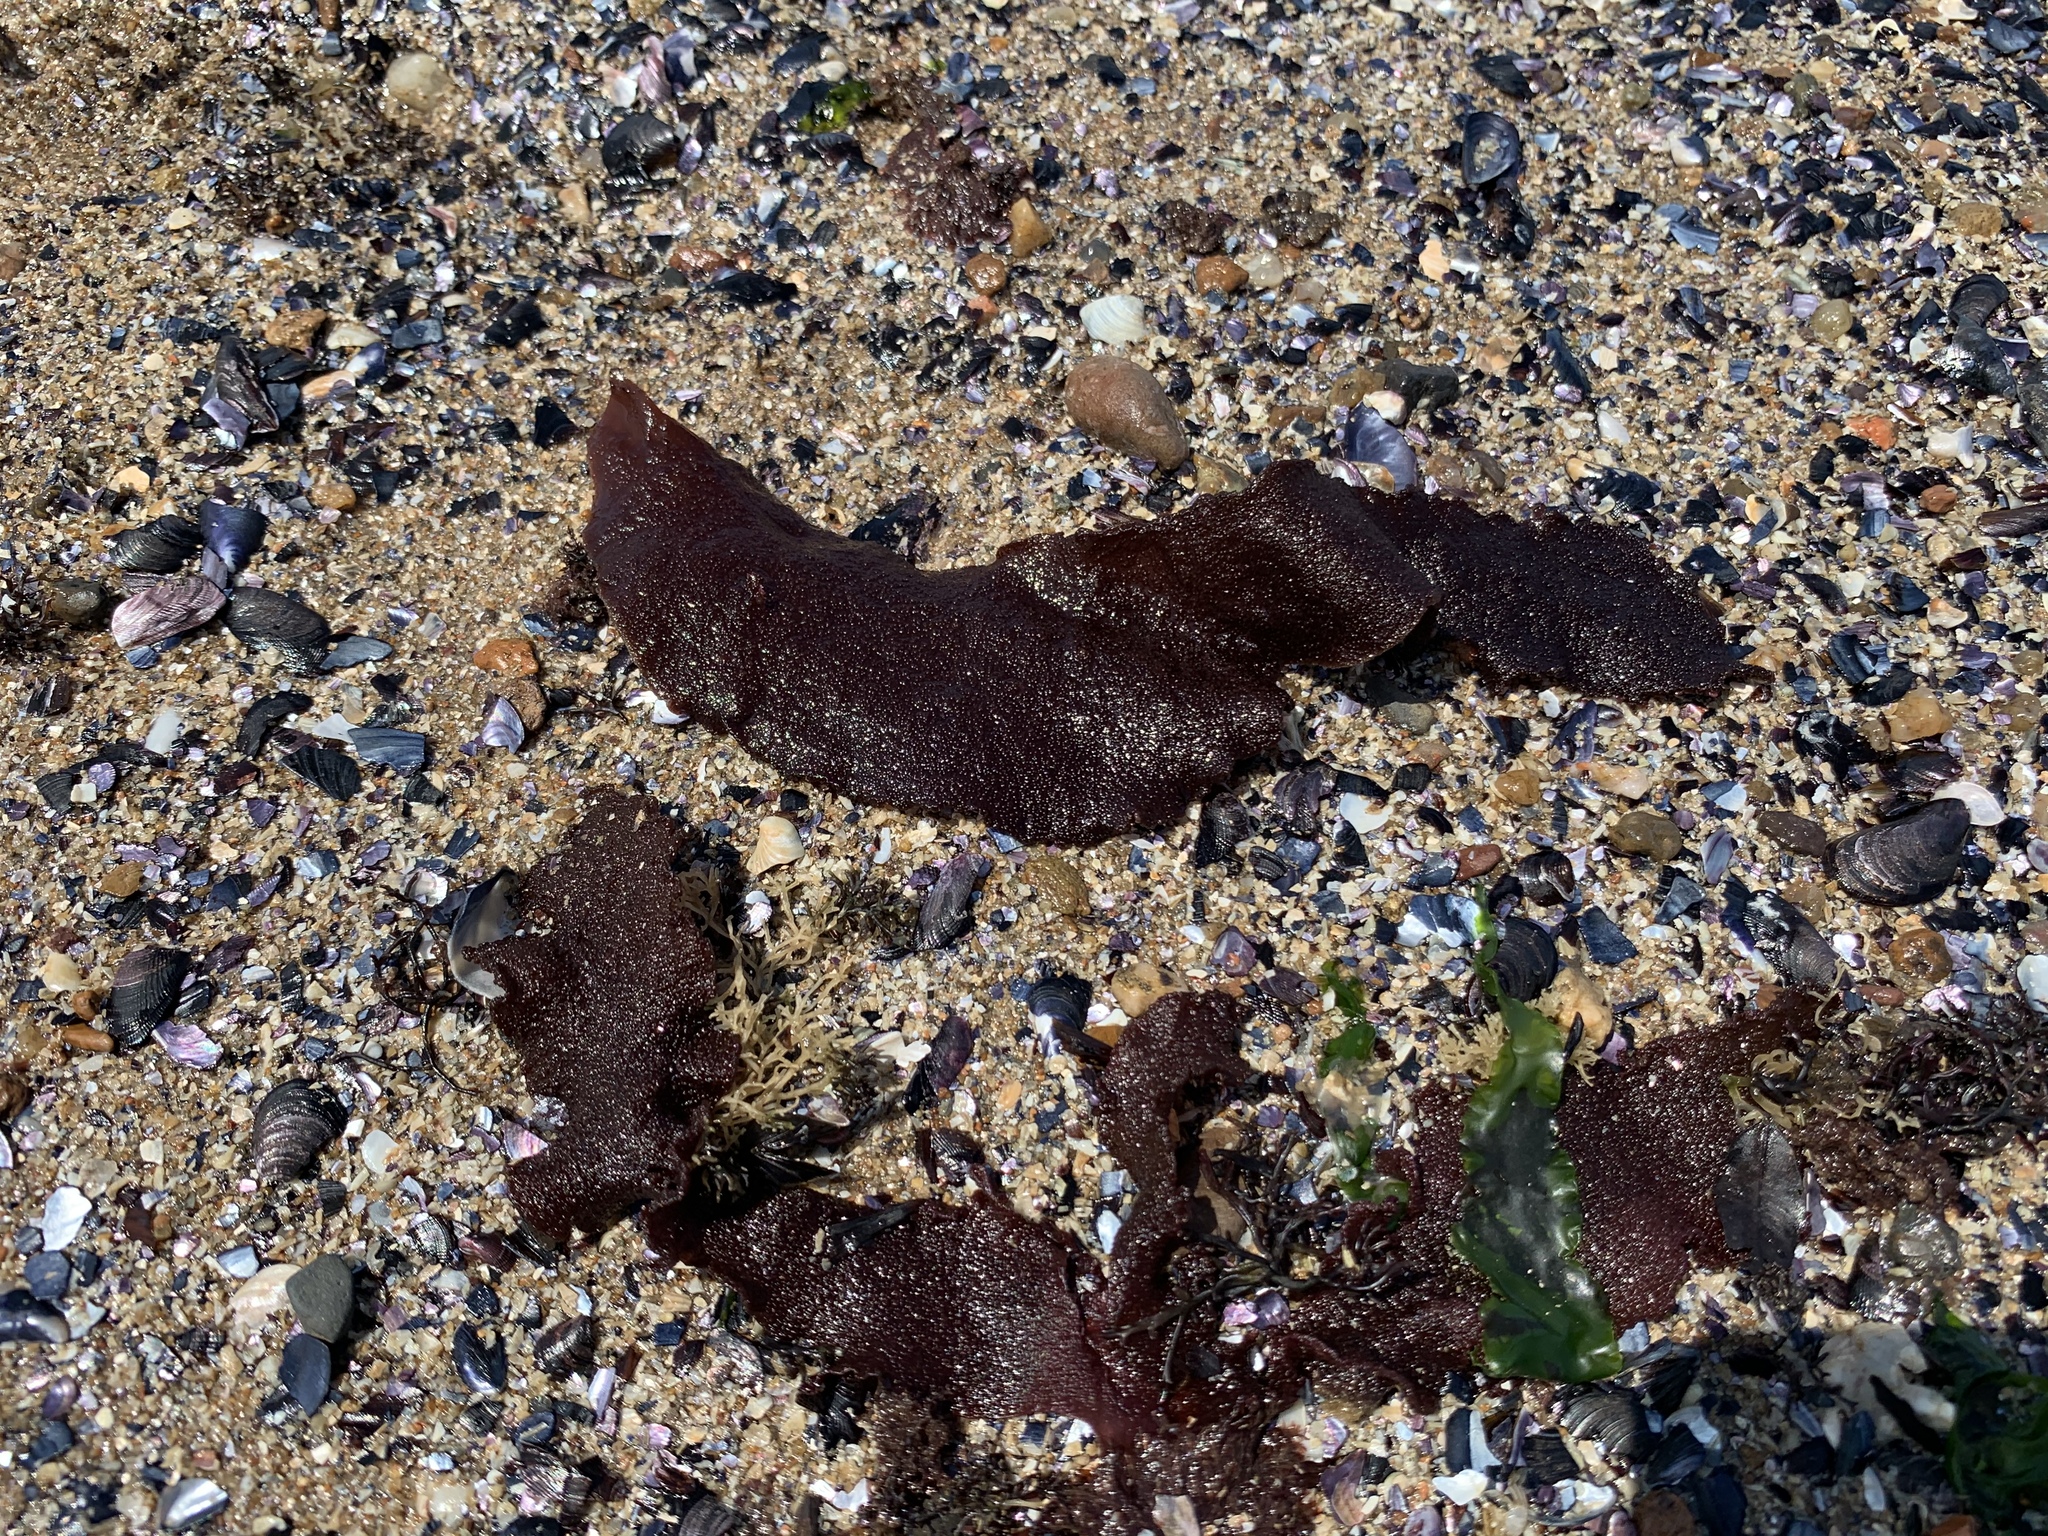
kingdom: Plantae
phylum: Rhodophyta
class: Florideophyceae
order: Halymeniales
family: Halymeniaceae
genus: Grateloupia
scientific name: Grateloupia turuturu
